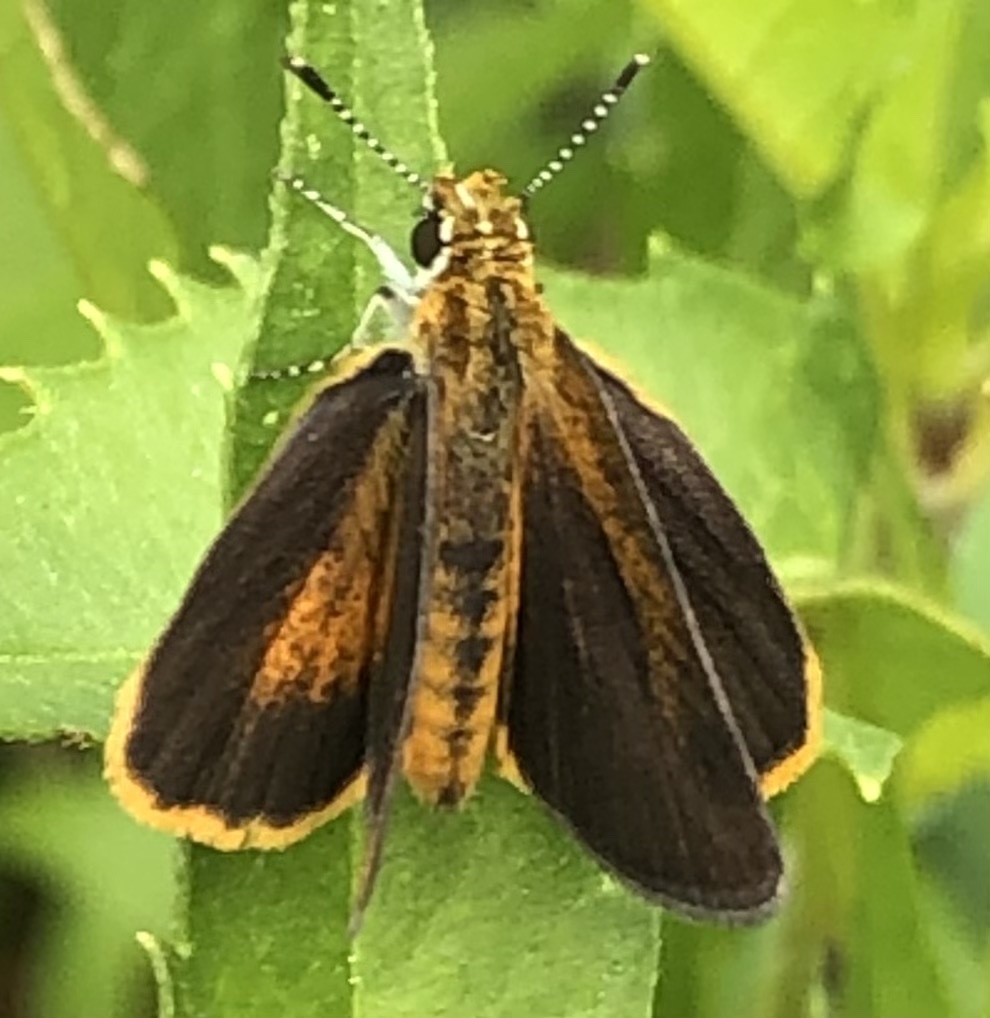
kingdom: Animalia
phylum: Arthropoda
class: Insecta
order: Lepidoptera
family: Hesperiidae
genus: Ancyloxypha
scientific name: Ancyloxypha numitor
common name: Least skipper
